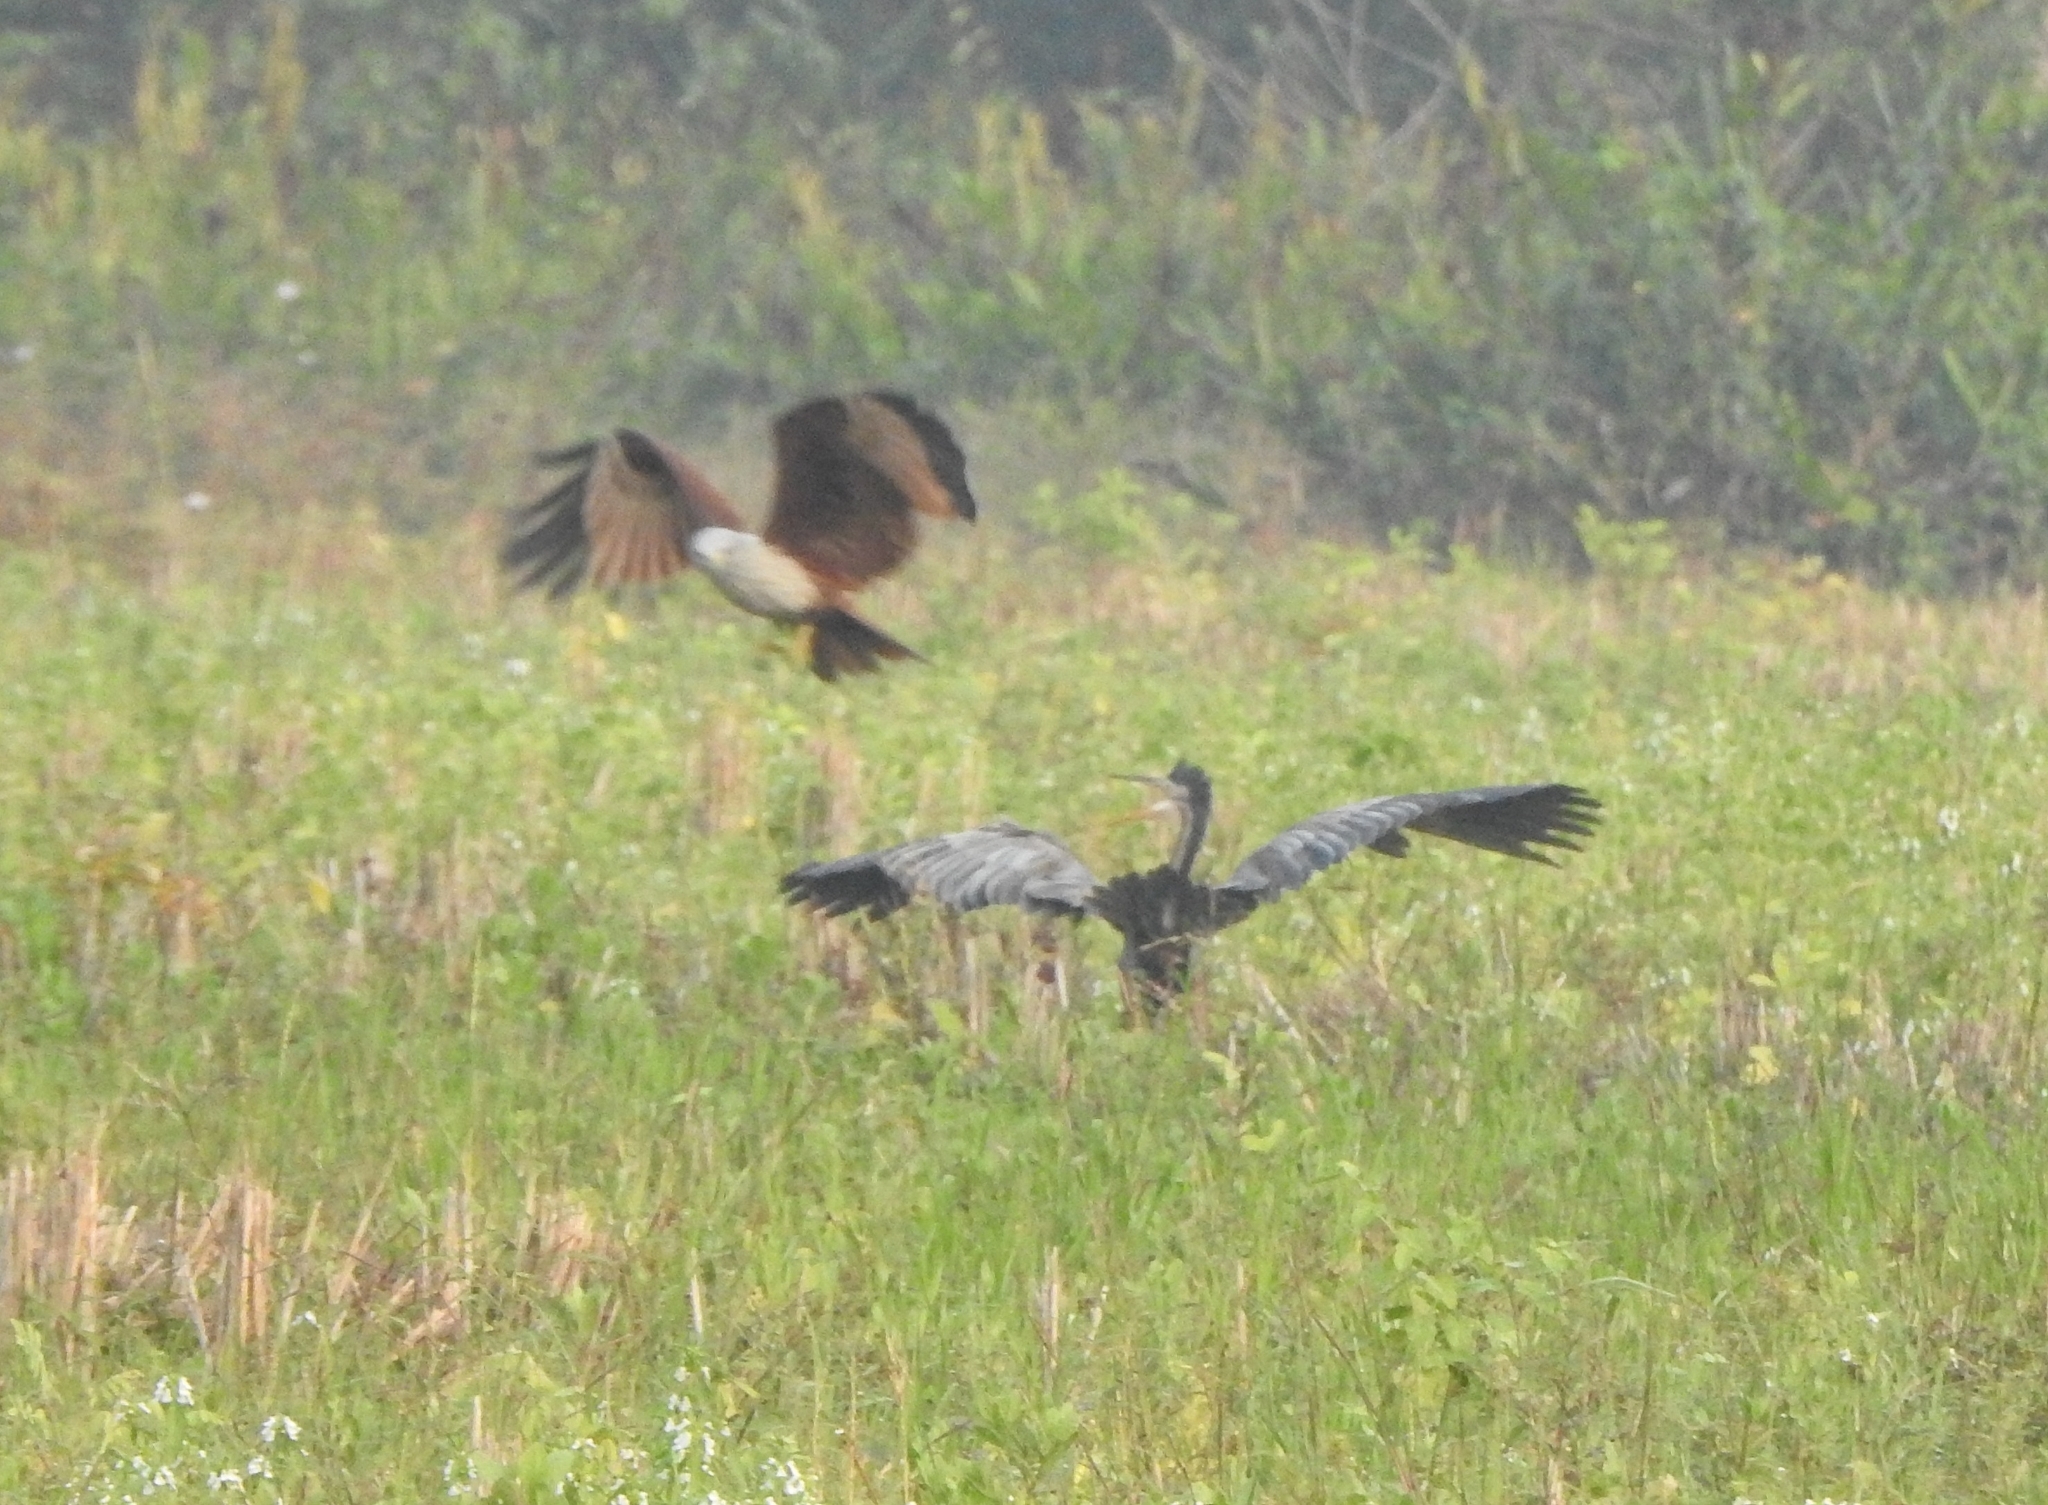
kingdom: Animalia
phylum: Chordata
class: Aves
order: Accipitriformes
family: Accipitridae
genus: Haliastur
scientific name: Haliastur indus
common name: Brahminy kite
